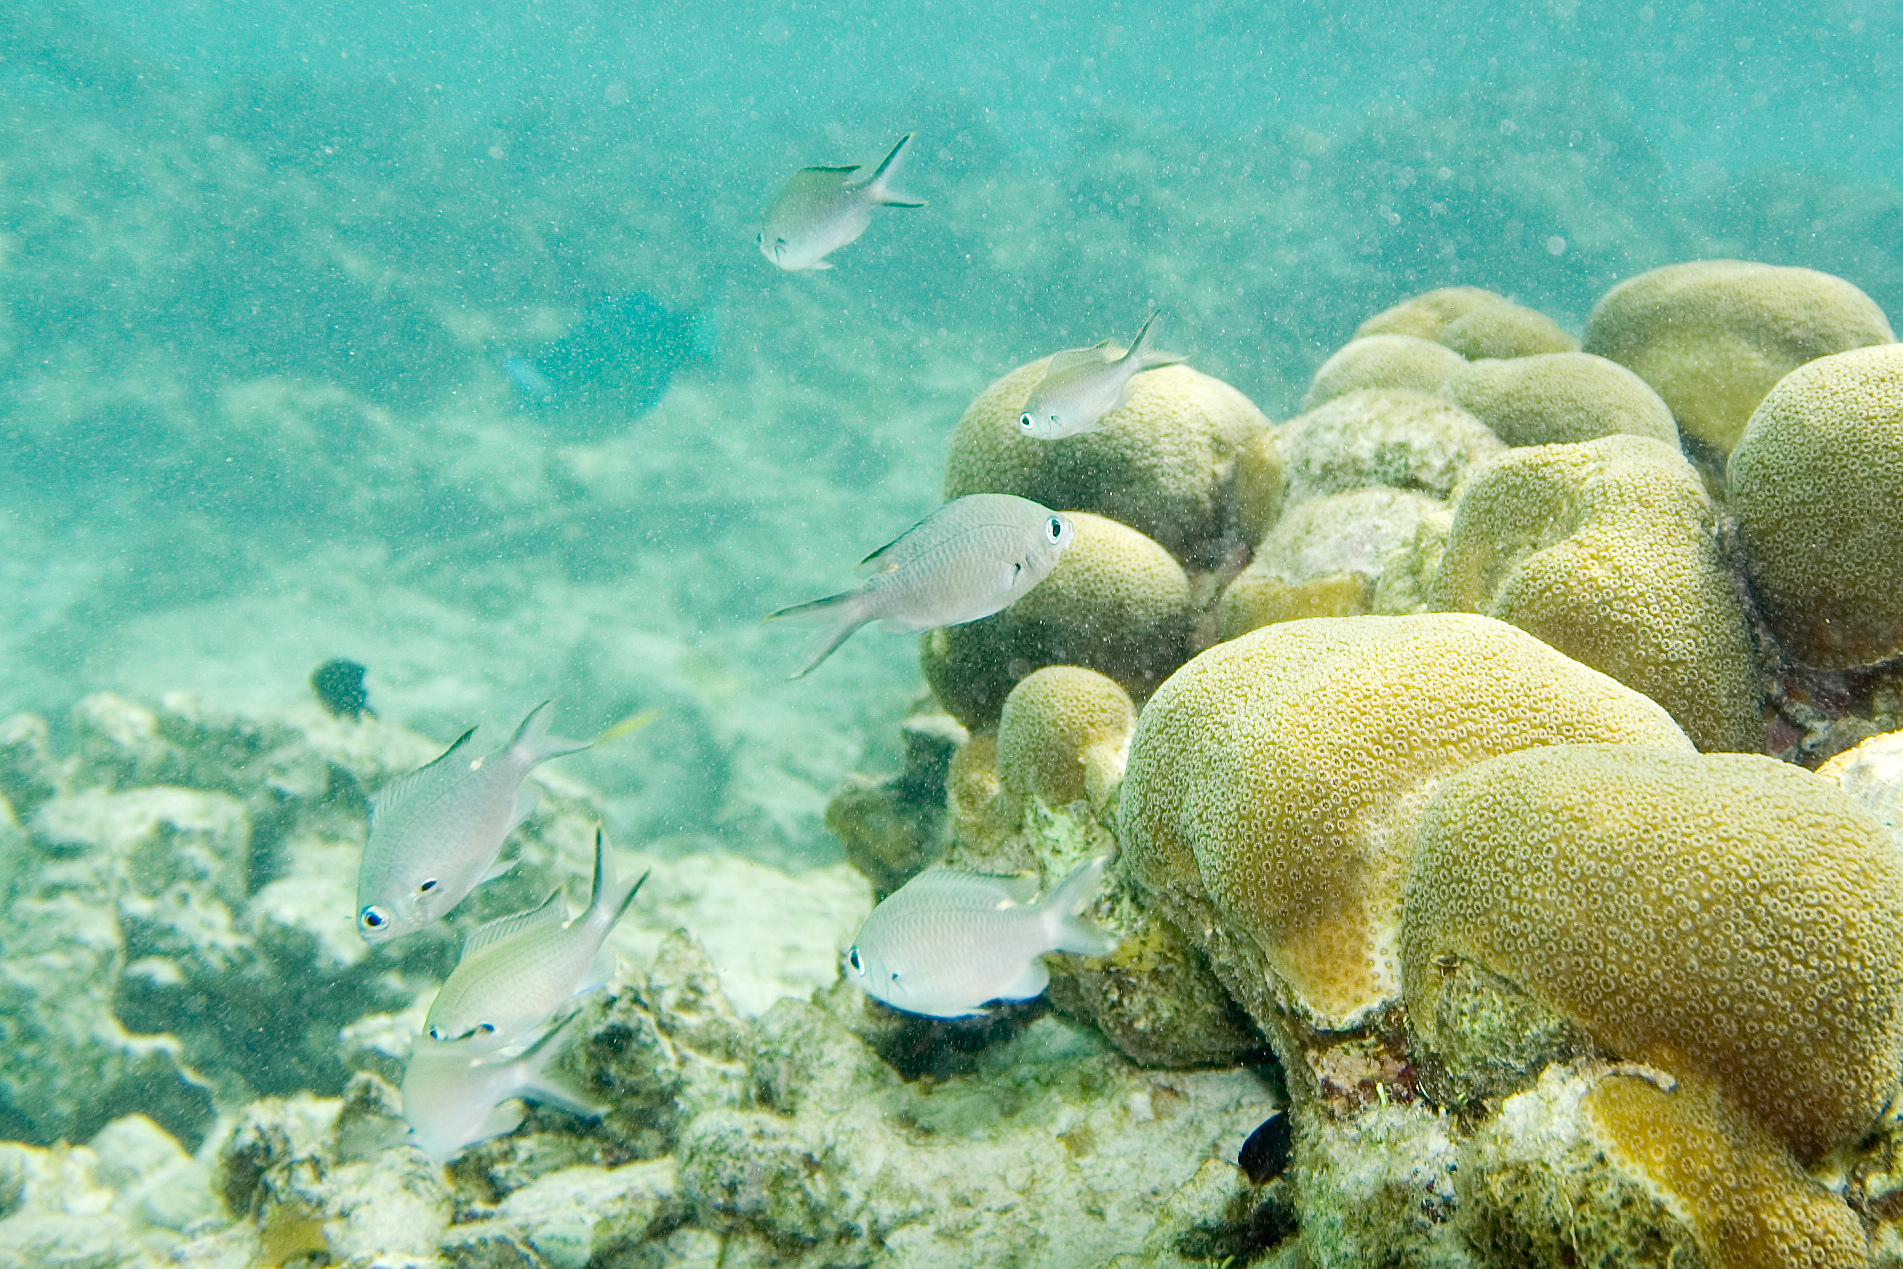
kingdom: Animalia
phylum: Chordata
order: Perciformes
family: Pomacentridae
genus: Chromis
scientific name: Chromis multilineata
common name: Brown chromis
